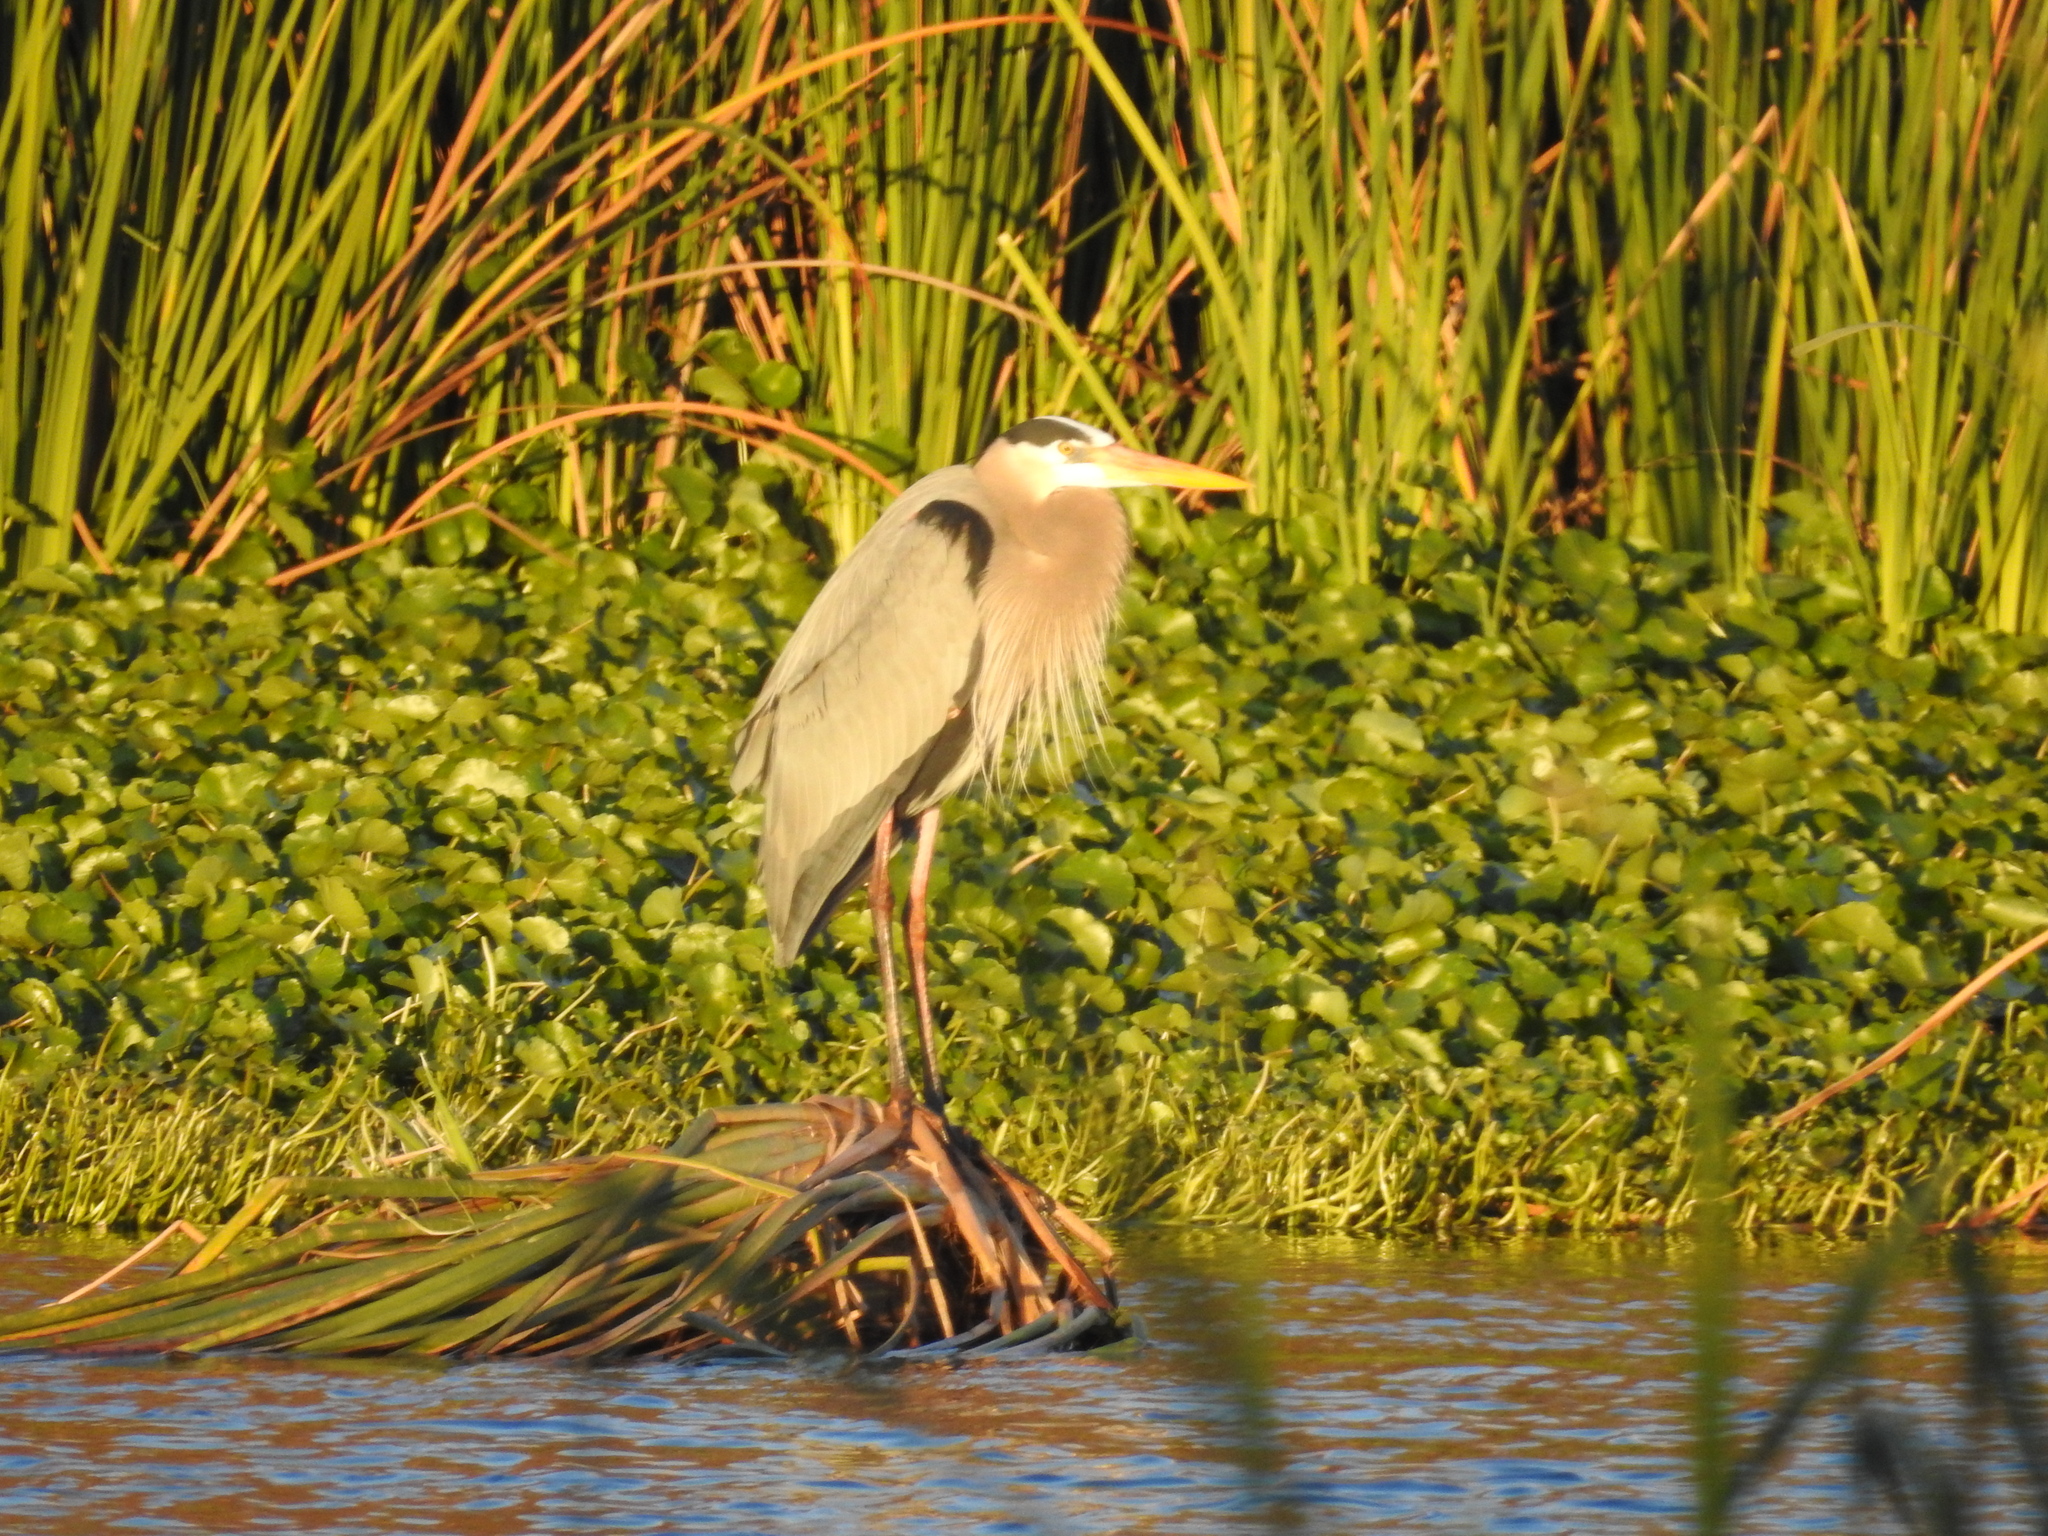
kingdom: Animalia
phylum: Chordata
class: Aves
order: Pelecaniformes
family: Ardeidae
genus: Ardea
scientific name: Ardea herodias
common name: Great blue heron
